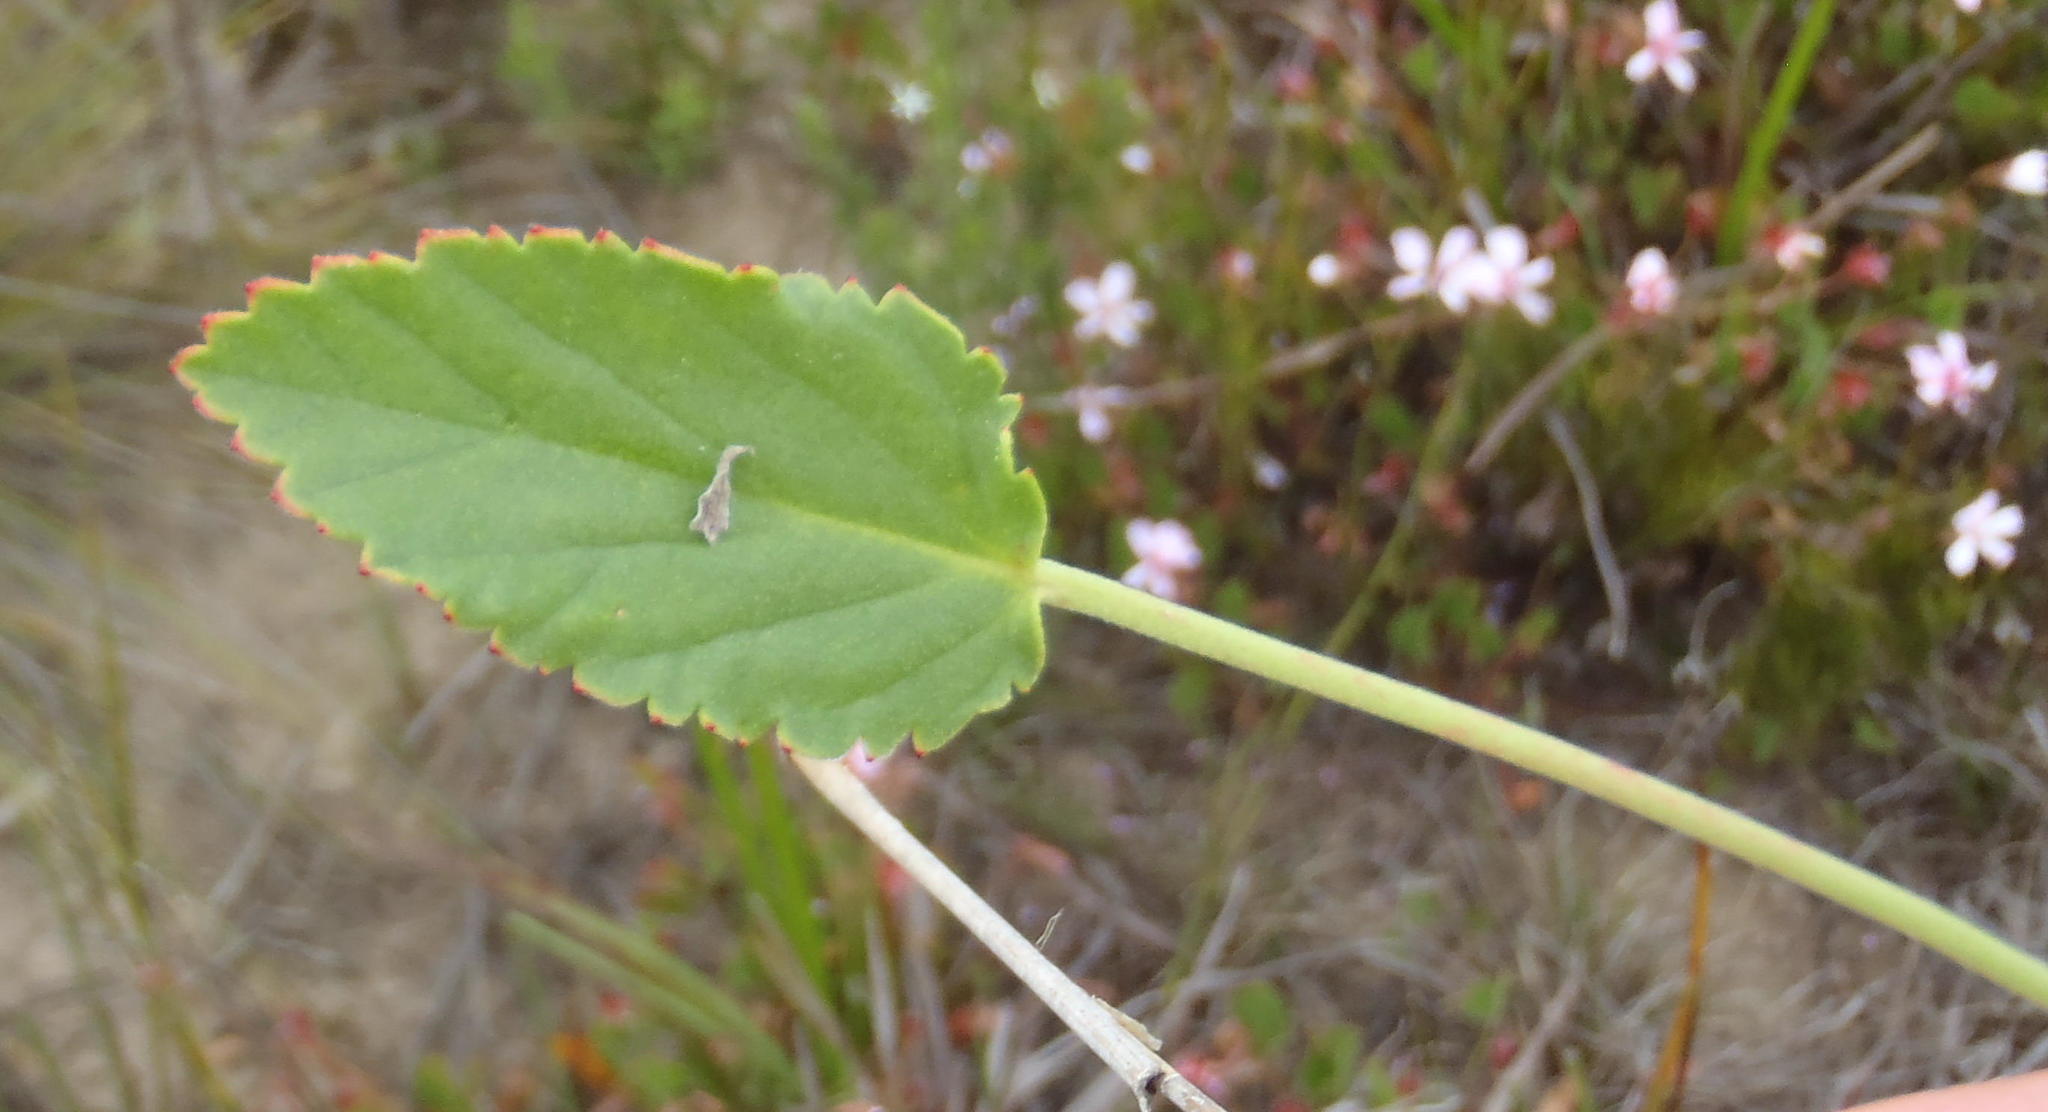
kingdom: Plantae
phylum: Tracheophyta
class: Magnoliopsida
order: Geraniales
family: Geraniaceae
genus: Pelargonium
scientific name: Pelargonium ovale
